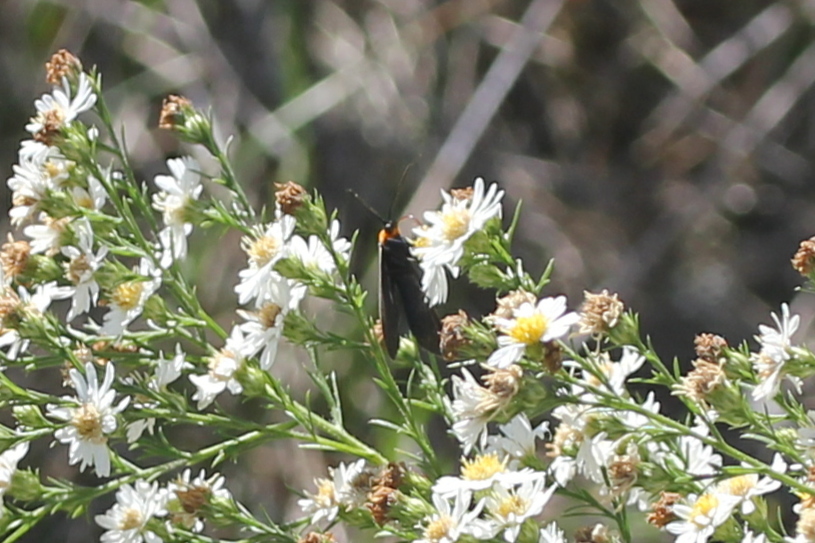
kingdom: Animalia
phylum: Arthropoda
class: Insecta
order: Lepidoptera
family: Erebidae
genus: Cisseps
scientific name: Cisseps fulvicollis
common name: Yellow-collared scape moth
